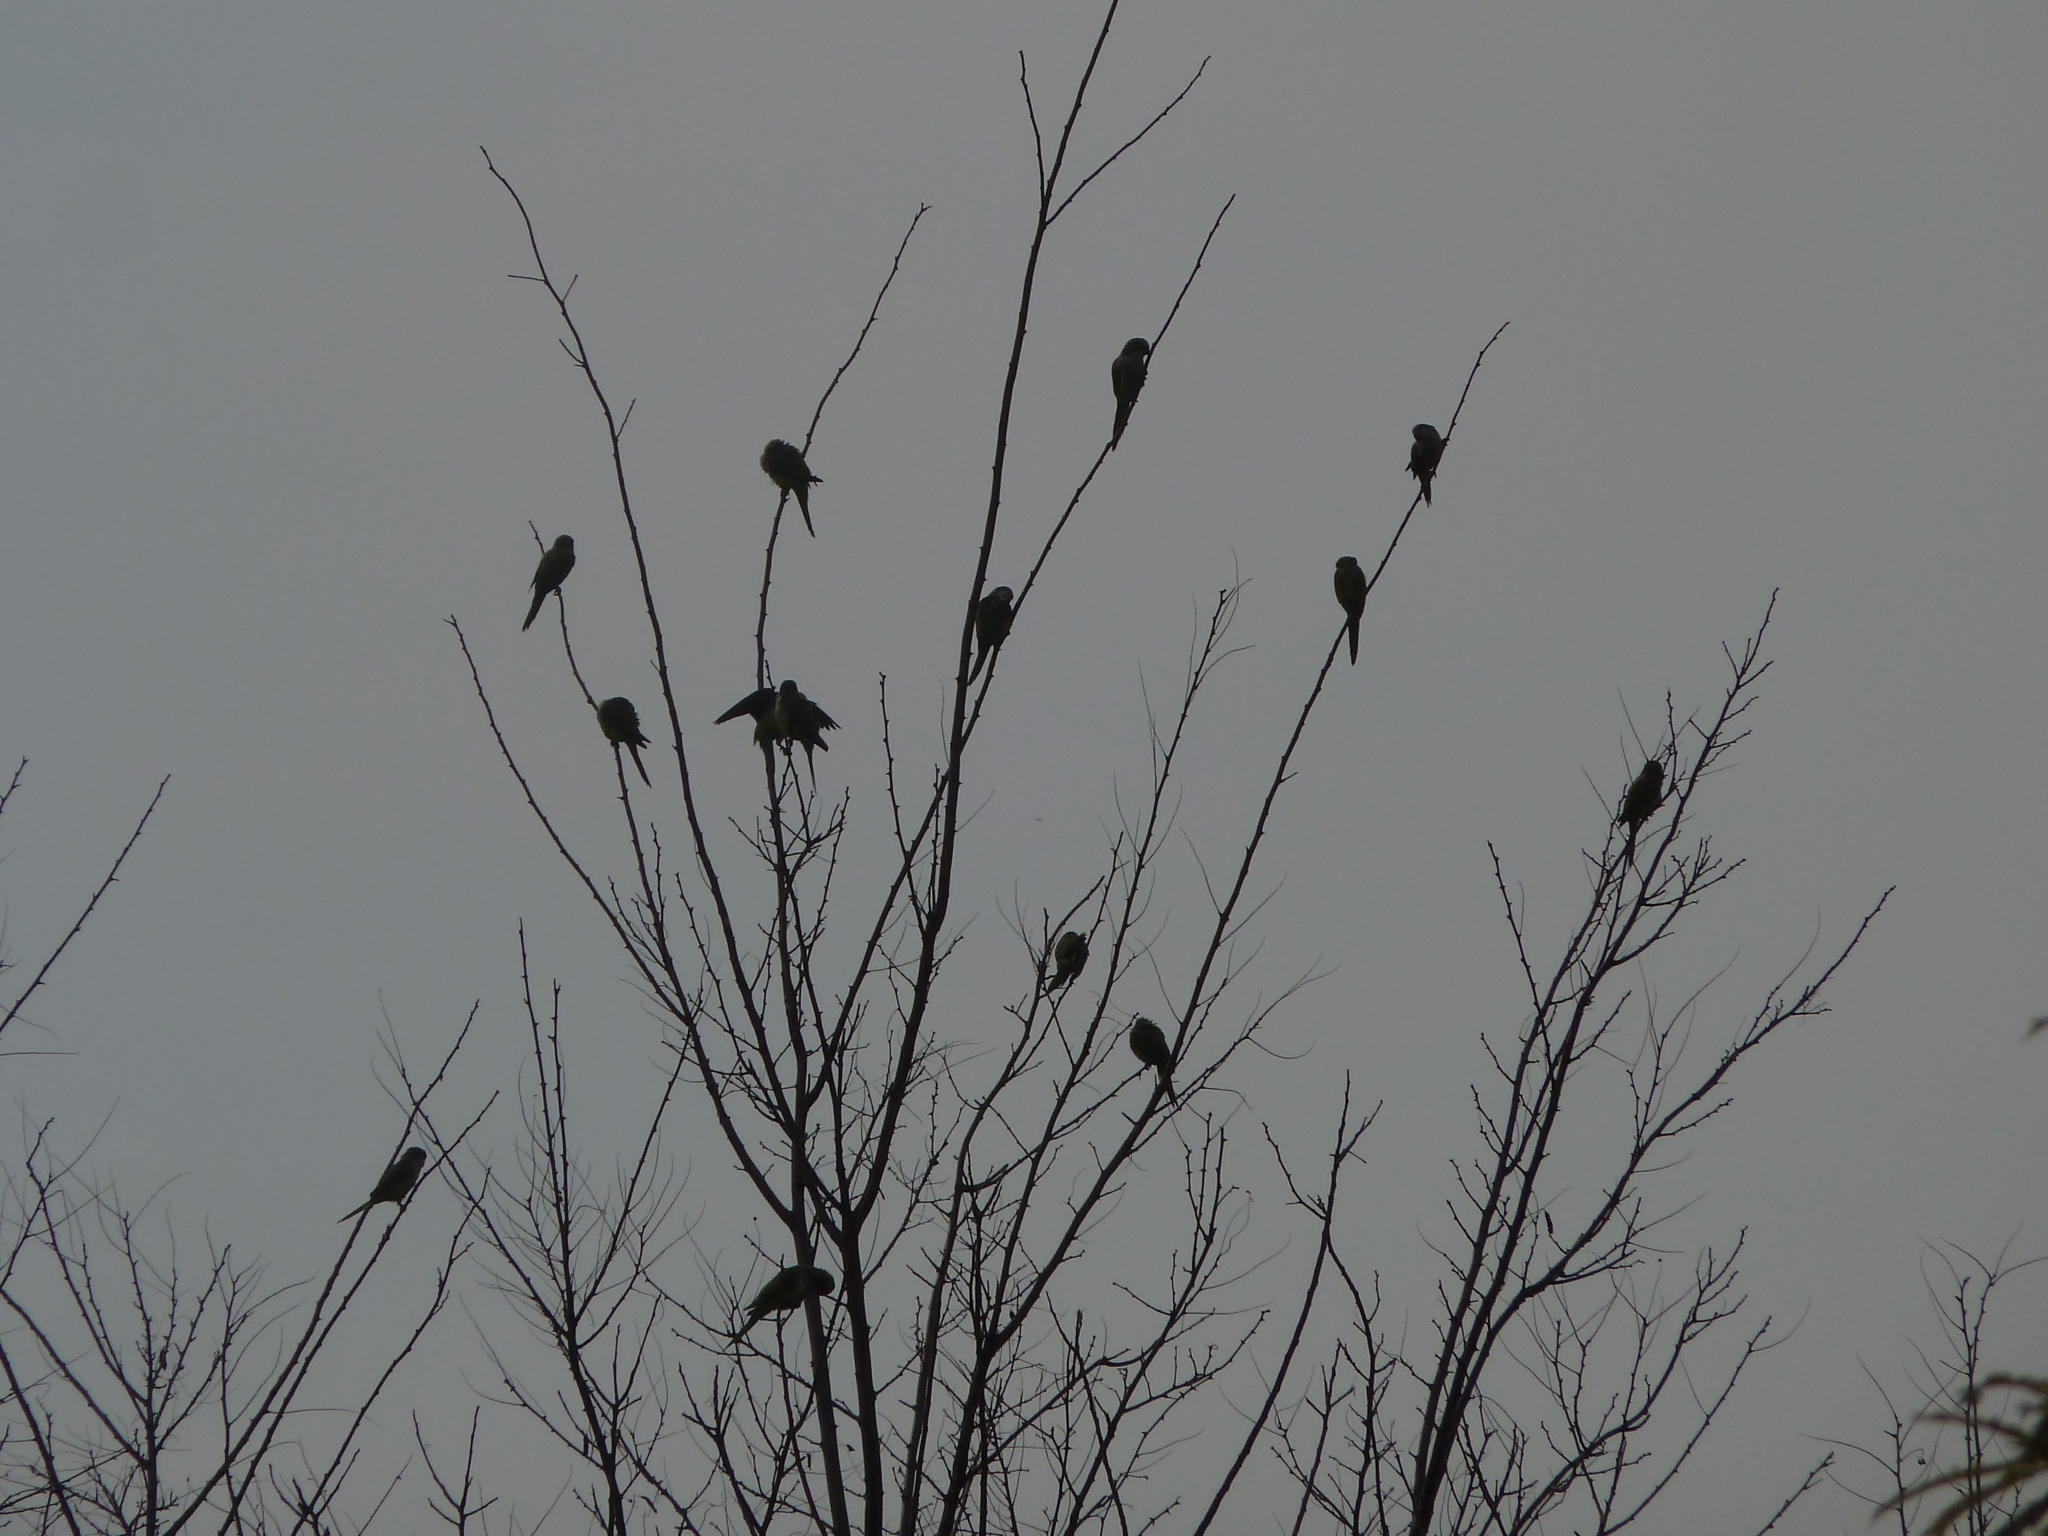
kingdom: Animalia
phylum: Chordata
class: Aves
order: Psittaciformes
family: Psittacidae
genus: Myiopsitta
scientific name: Myiopsitta monachus
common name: Monk parakeet
